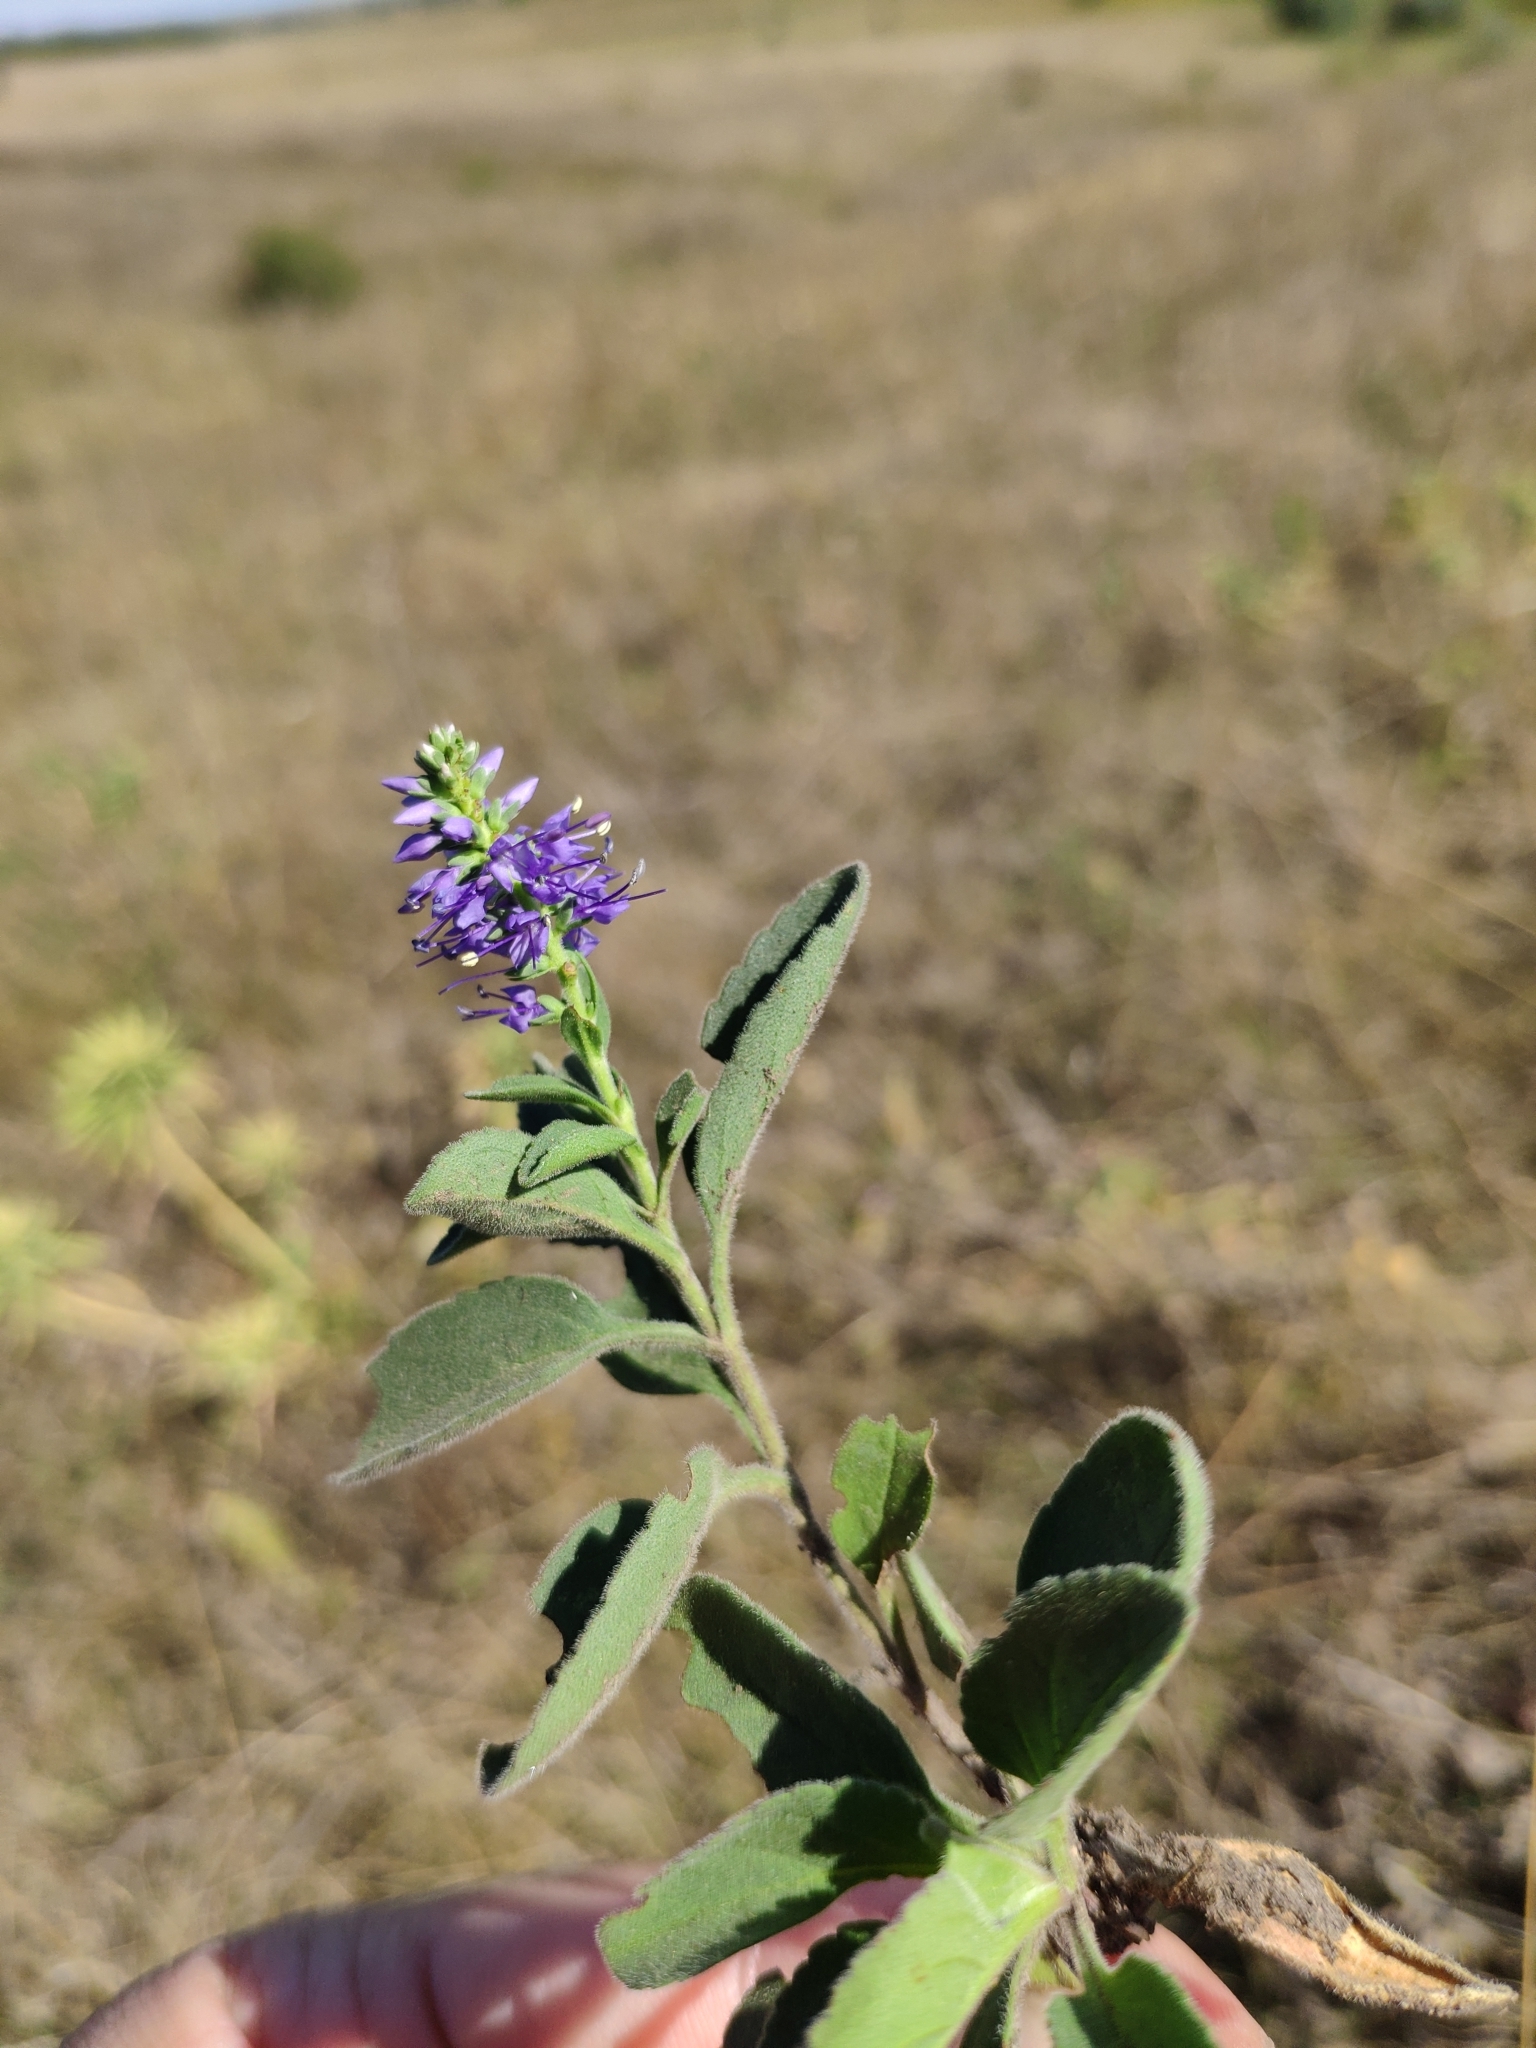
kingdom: Plantae
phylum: Tracheophyta
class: Magnoliopsida
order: Lamiales
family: Plantaginaceae
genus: Veronica
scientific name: Veronica barrelieri
